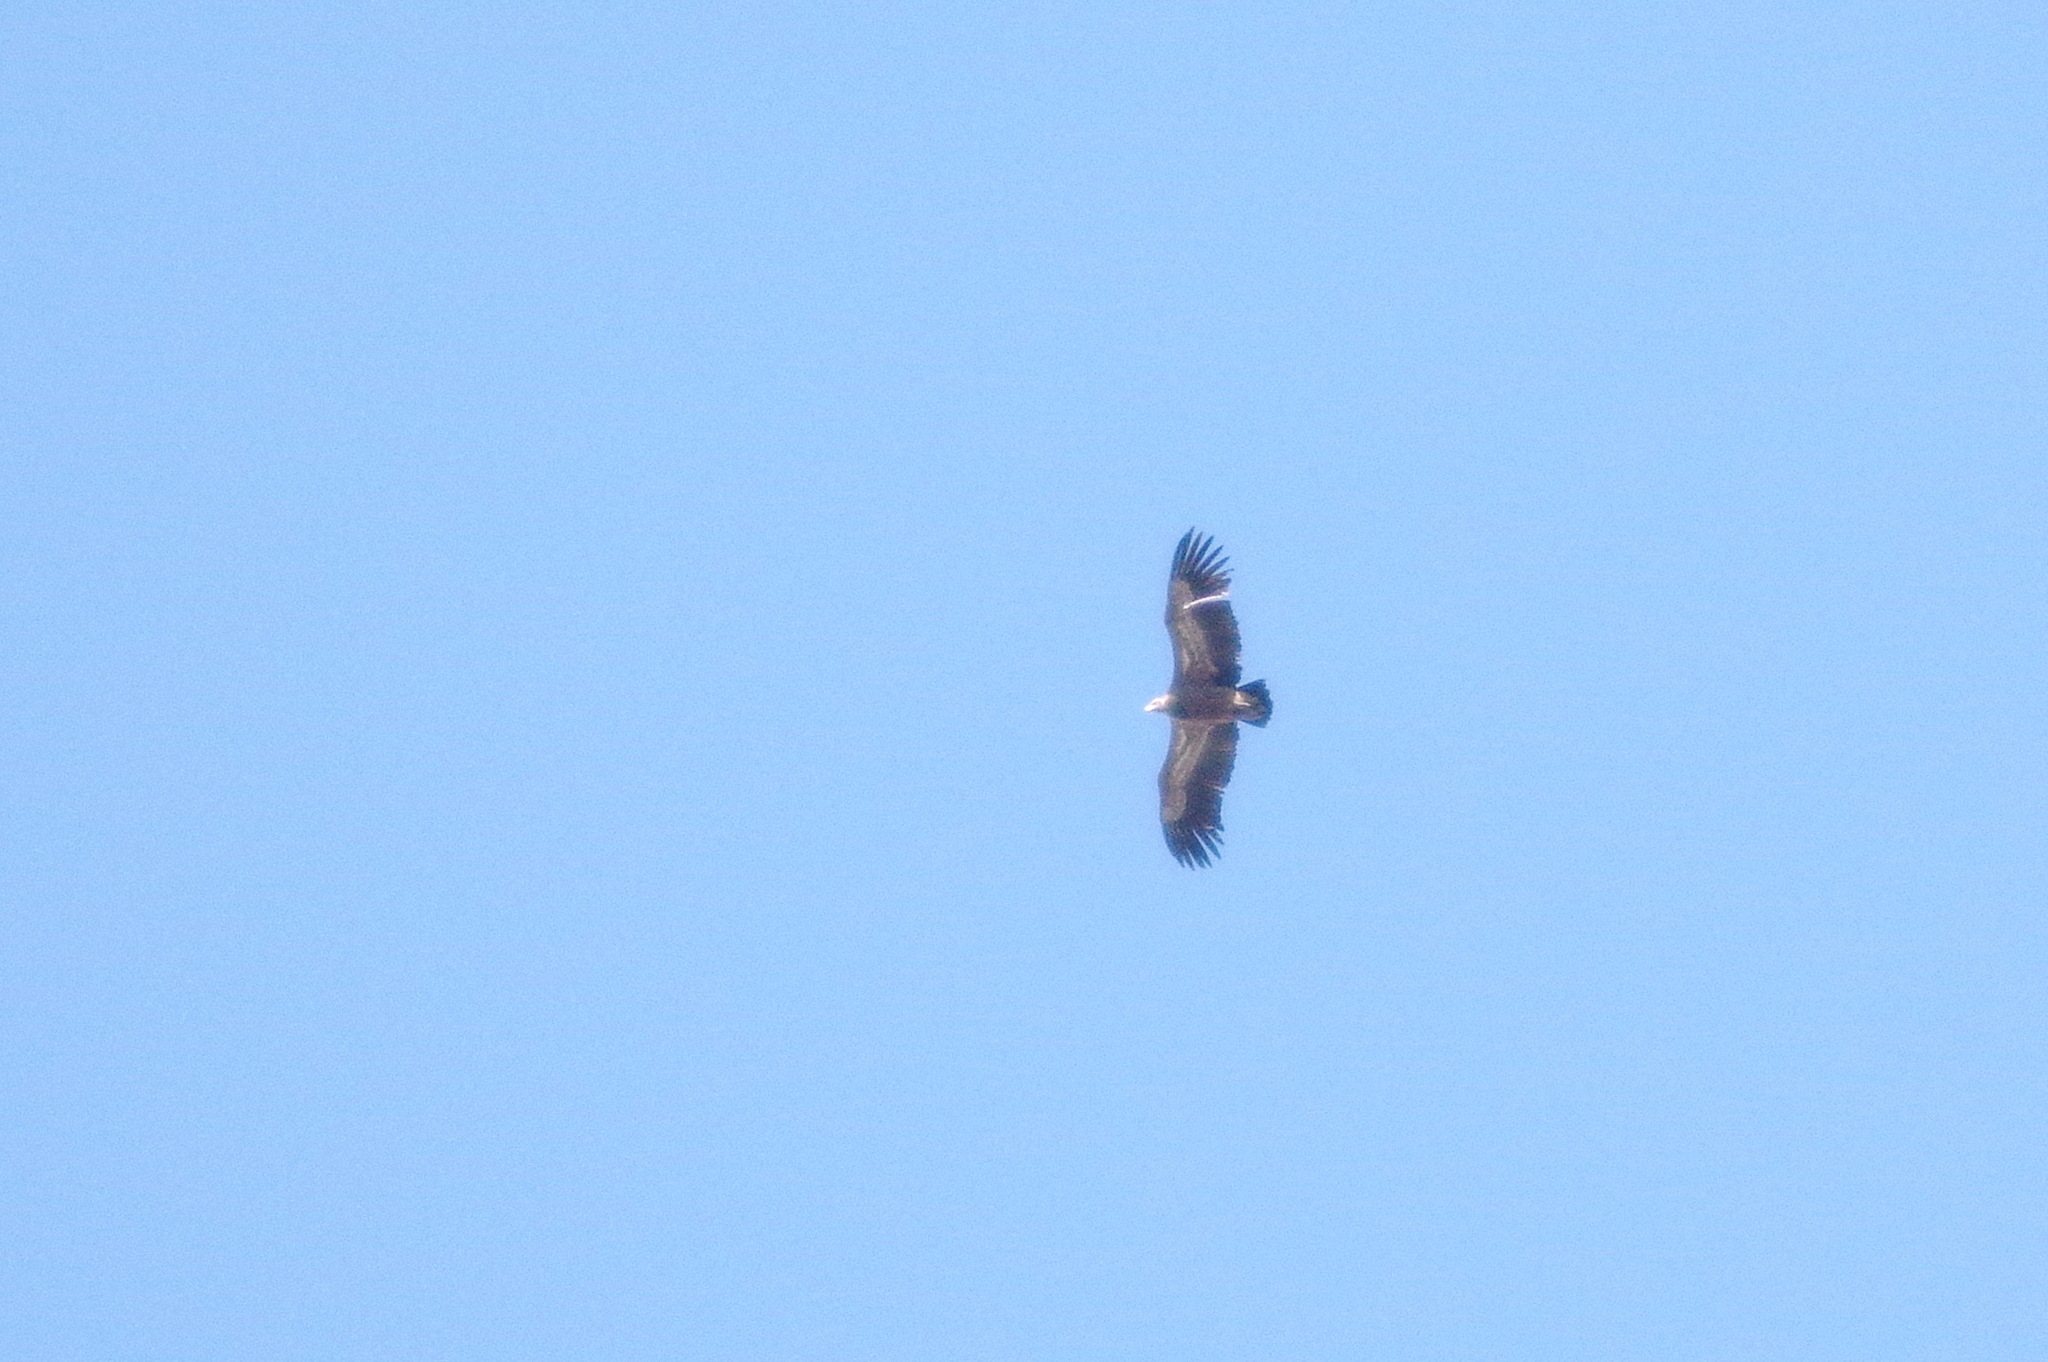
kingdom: Animalia
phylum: Chordata
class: Aves
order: Accipitriformes
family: Accipitridae
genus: Gyps
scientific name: Gyps fulvus
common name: Griffon vulture
